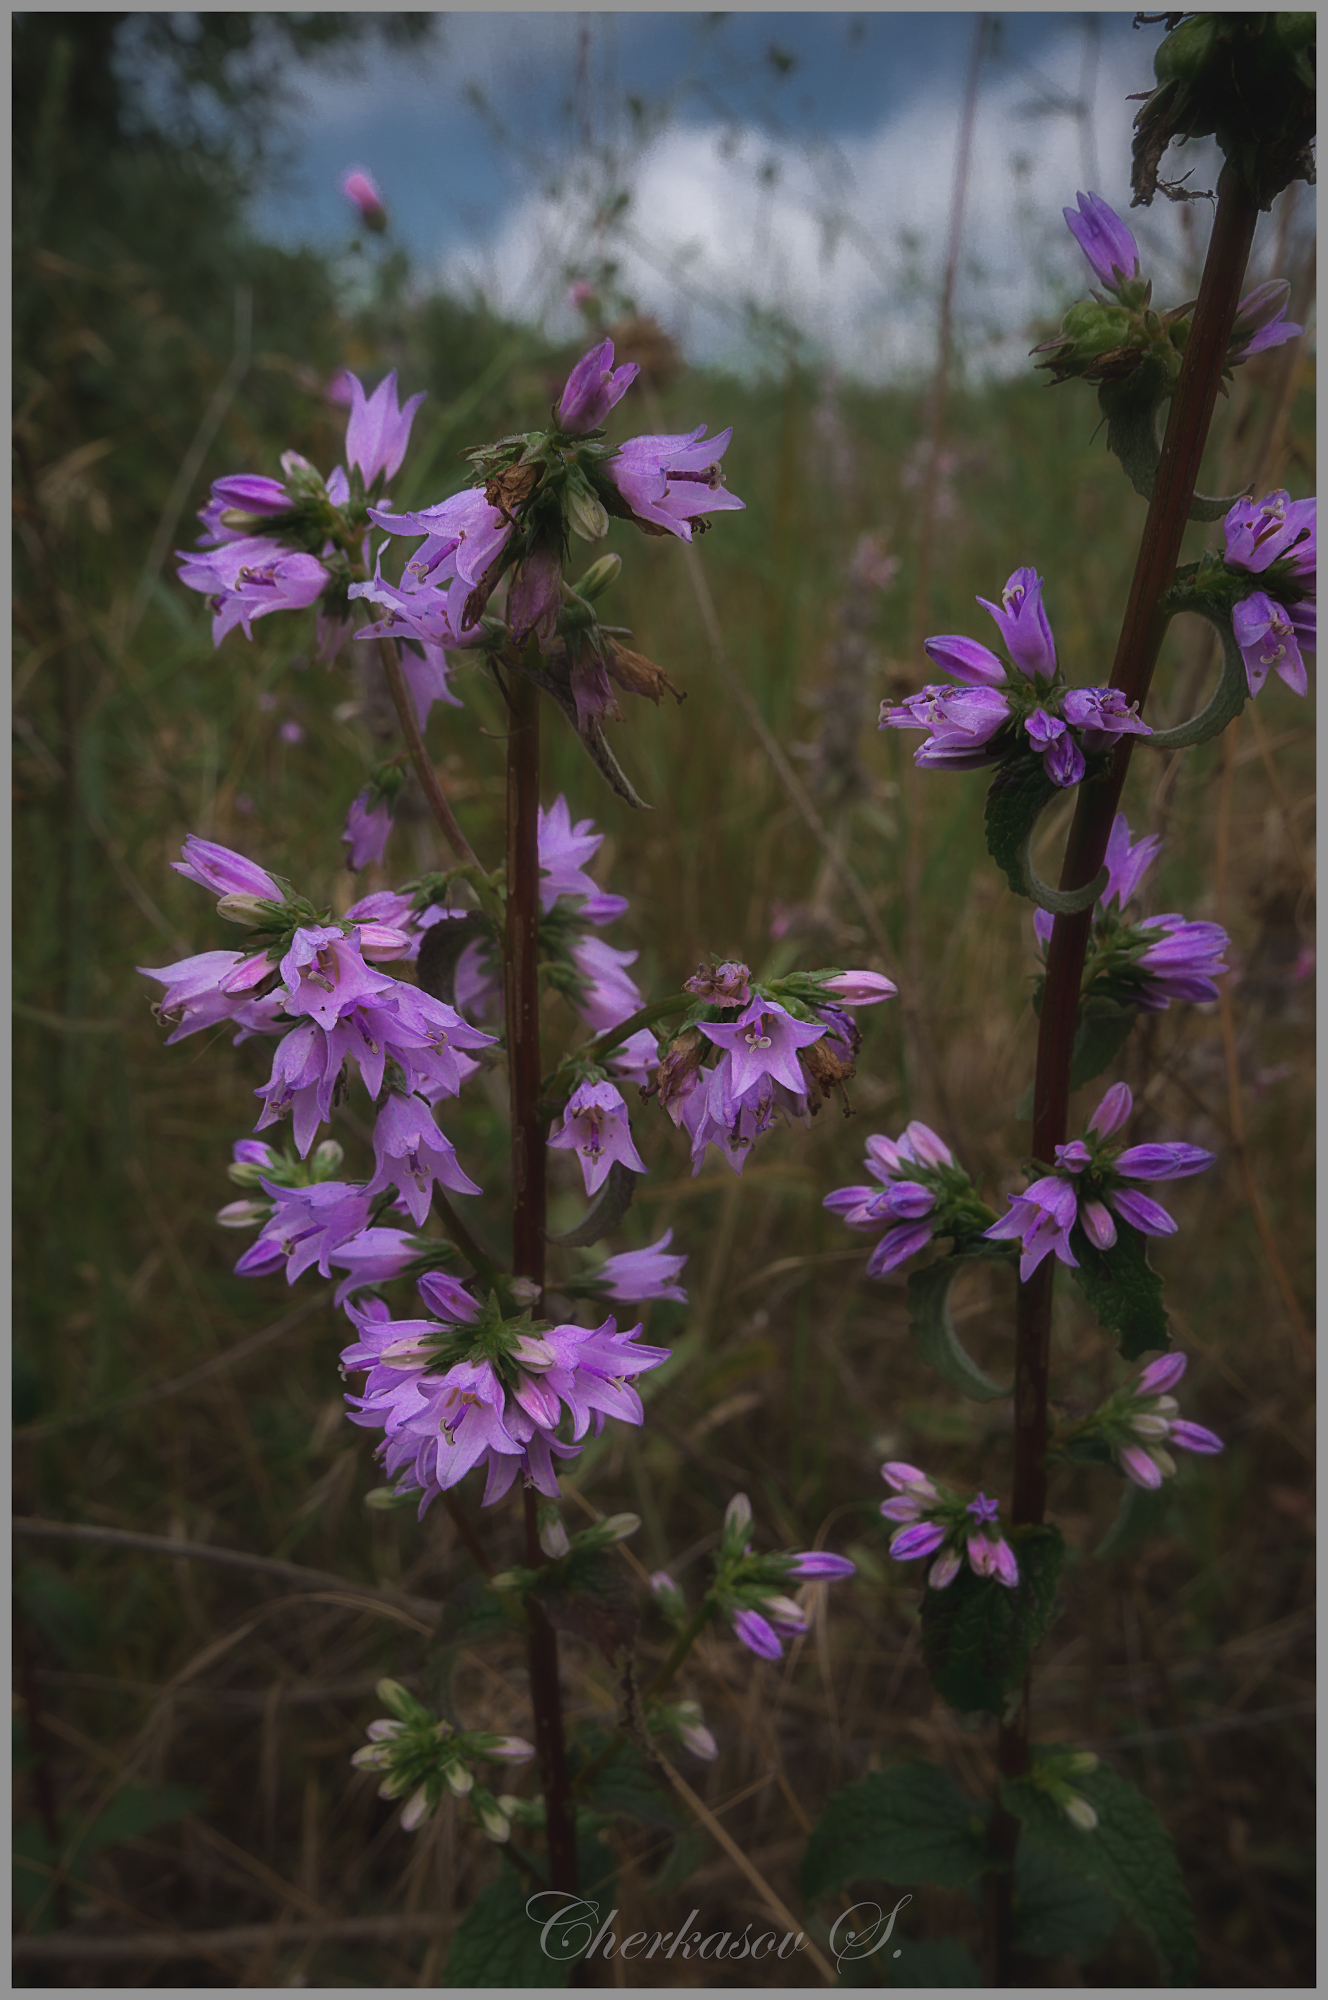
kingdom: Plantae
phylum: Tracheophyta
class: Magnoliopsida
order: Asterales
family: Campanulaceae
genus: Campanula
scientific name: Campanula bononiensis
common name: Pale bellflower
